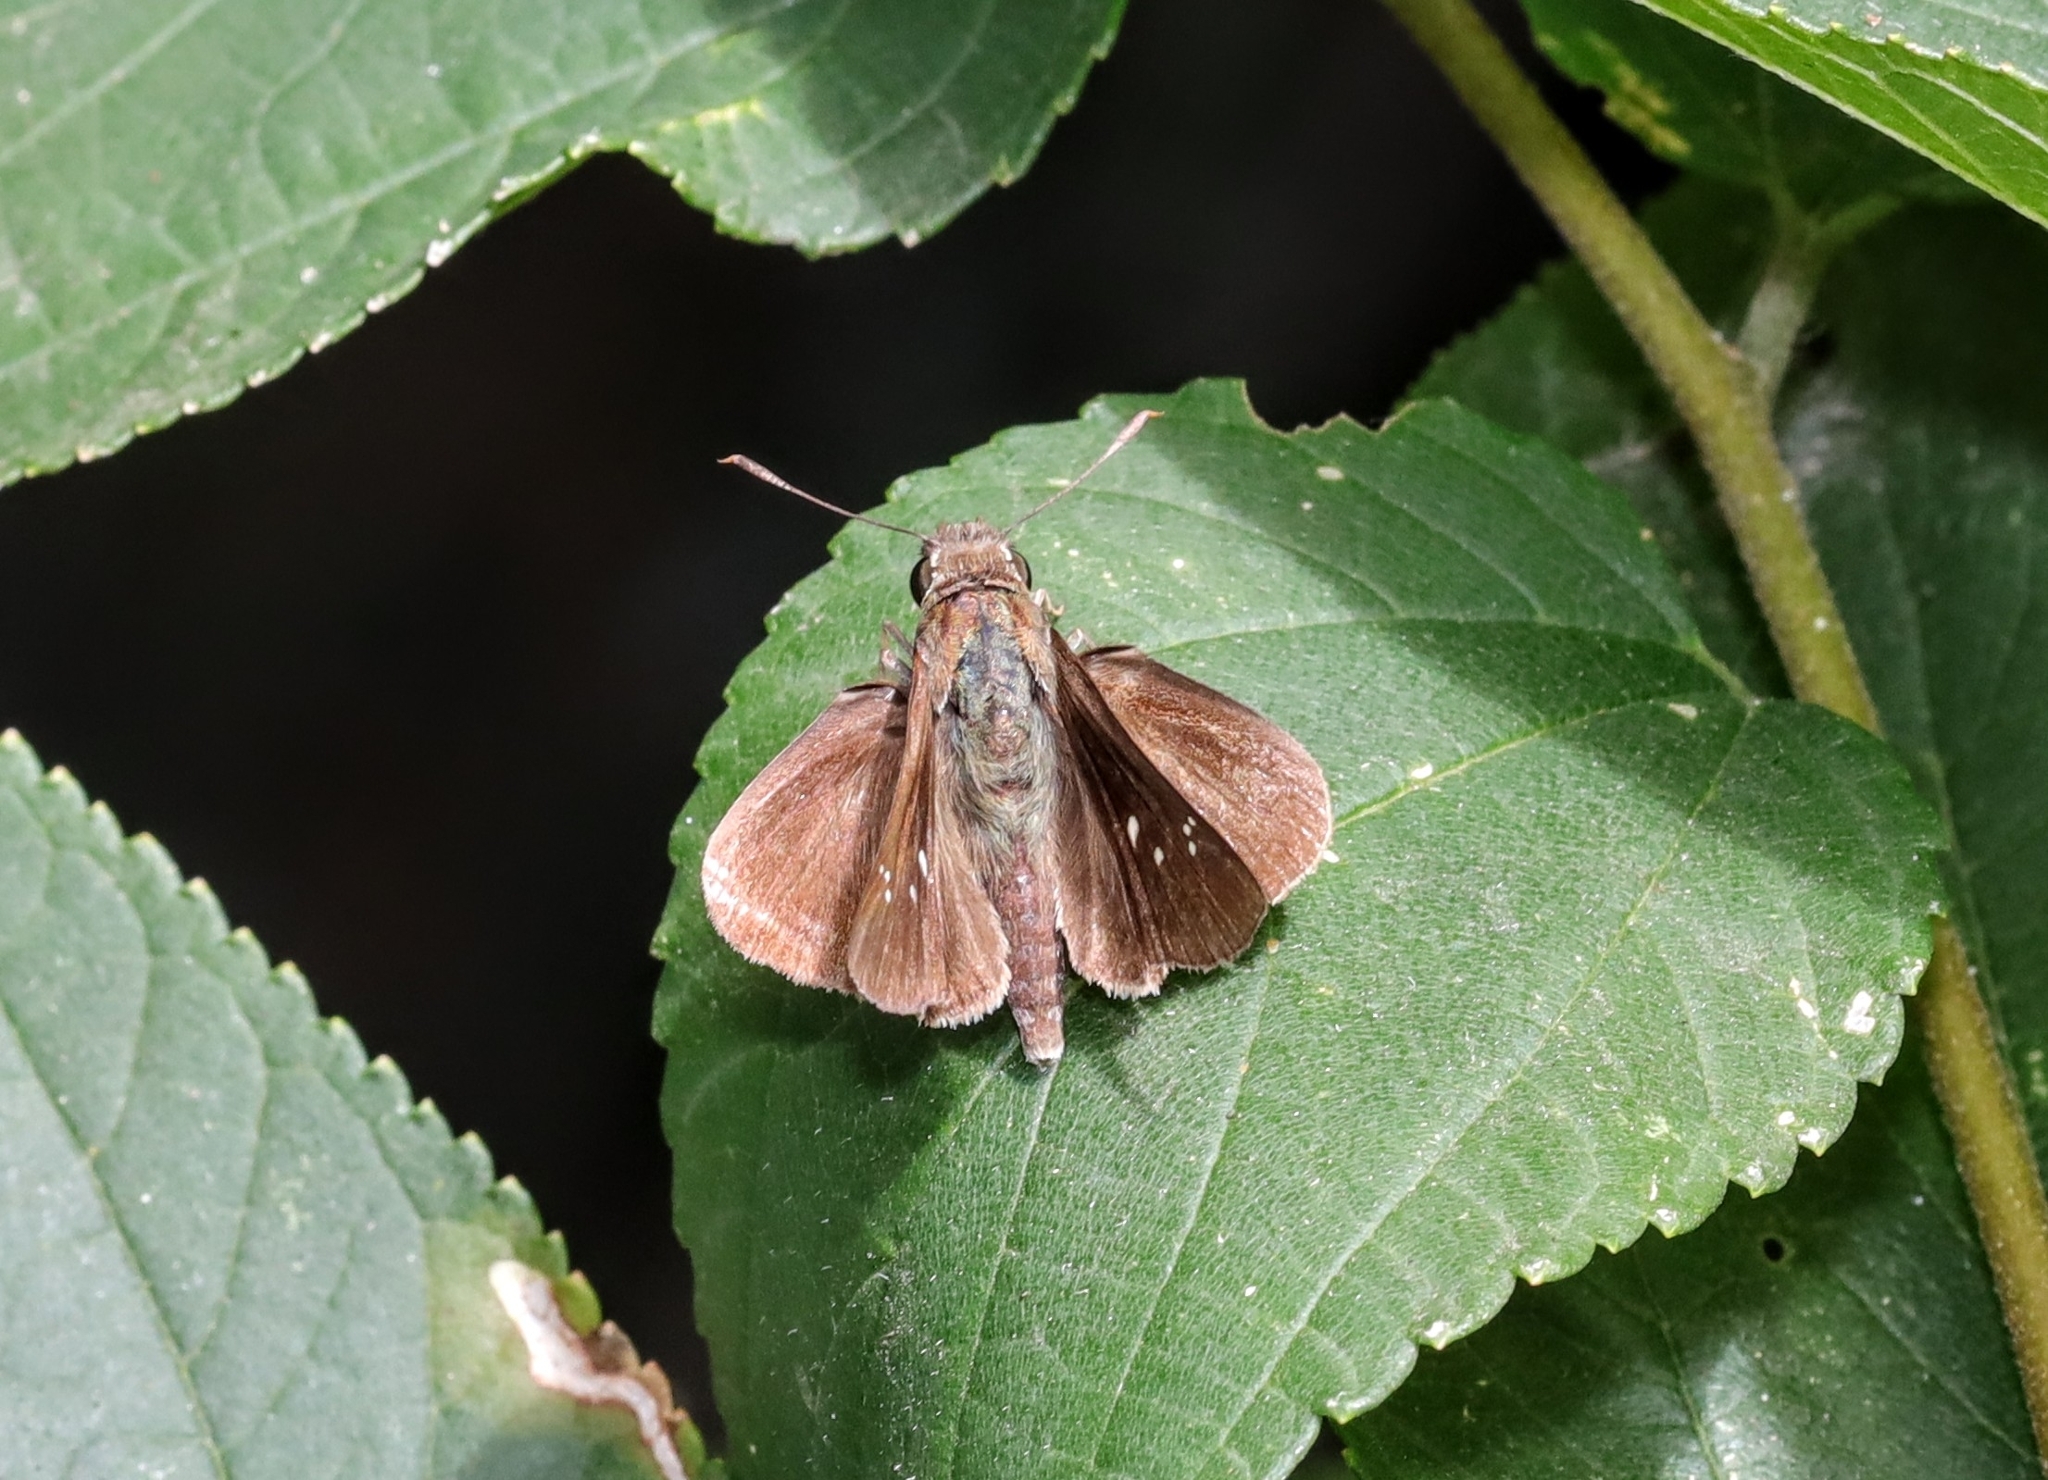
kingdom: Animalia
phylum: Arthropoda
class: Insecta
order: Lepidoptera
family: Hesperiidae
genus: Baoris
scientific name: Baoris fatuellus
